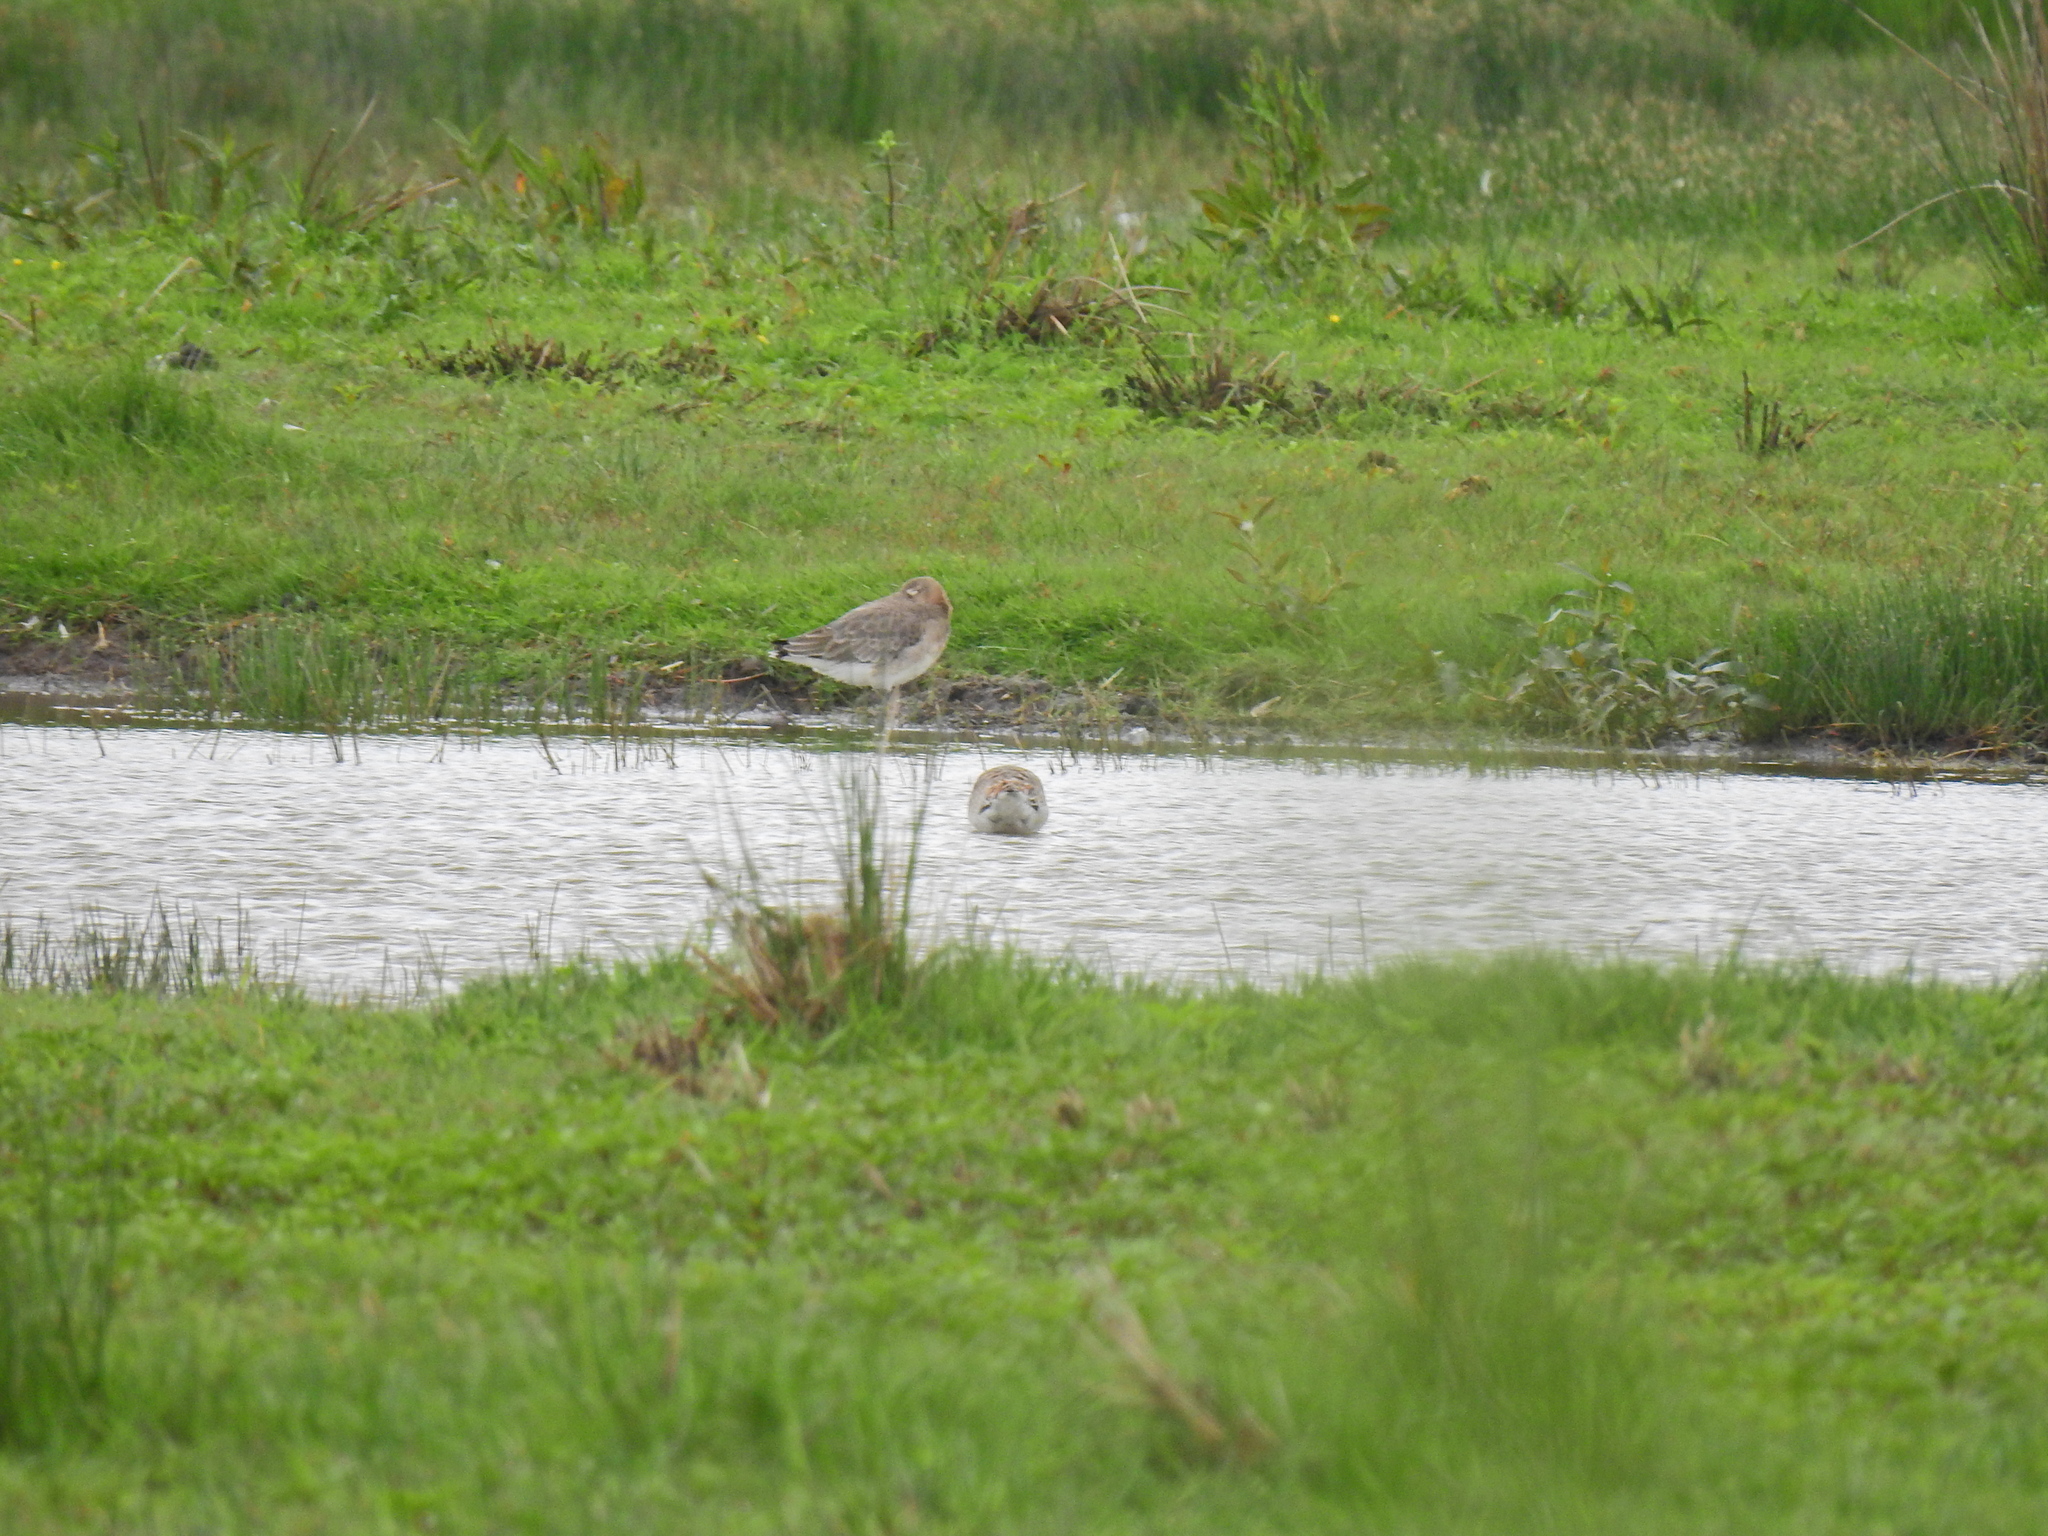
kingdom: Animalia
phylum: Chordata
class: Aves
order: Charadriiformes
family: Scolopacidae
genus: Limosa
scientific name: Limosa limosa
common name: Black-tailed godwit
